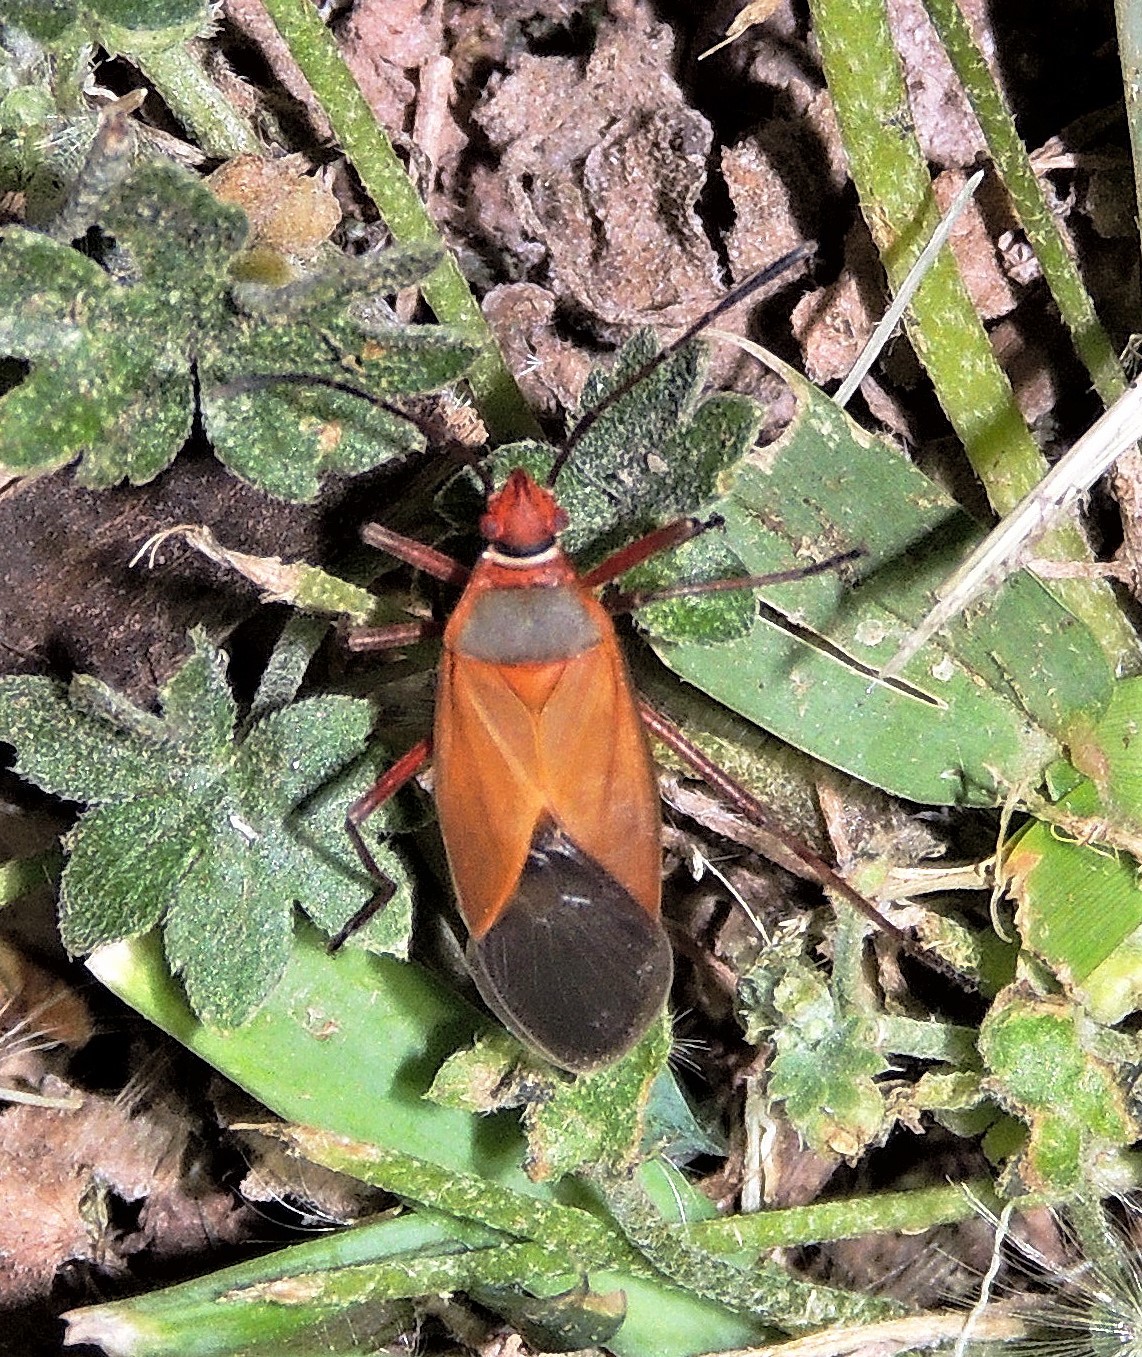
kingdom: Animalia
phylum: Arthropoda
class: Insecta
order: Hemiptera
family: Pyrrhocoridae
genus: Dysdercus
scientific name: Dysdercus
